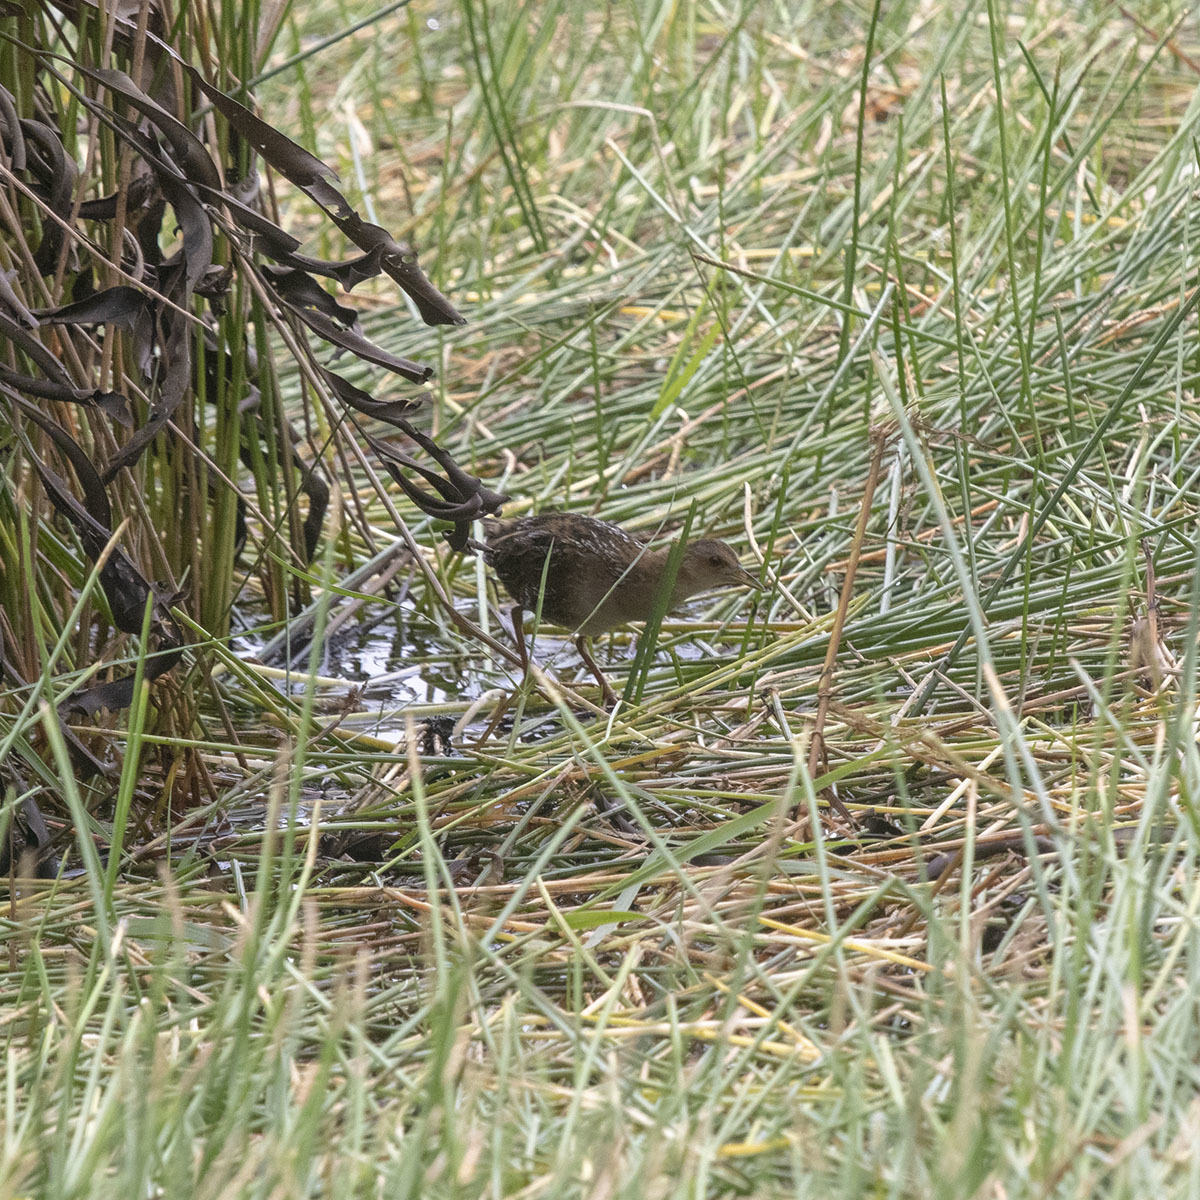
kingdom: Animalia
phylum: Chordata
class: Aves
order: Gruiformes
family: Rallidae
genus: Porzana
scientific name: Porzana pusilla
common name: Baillon's crake
